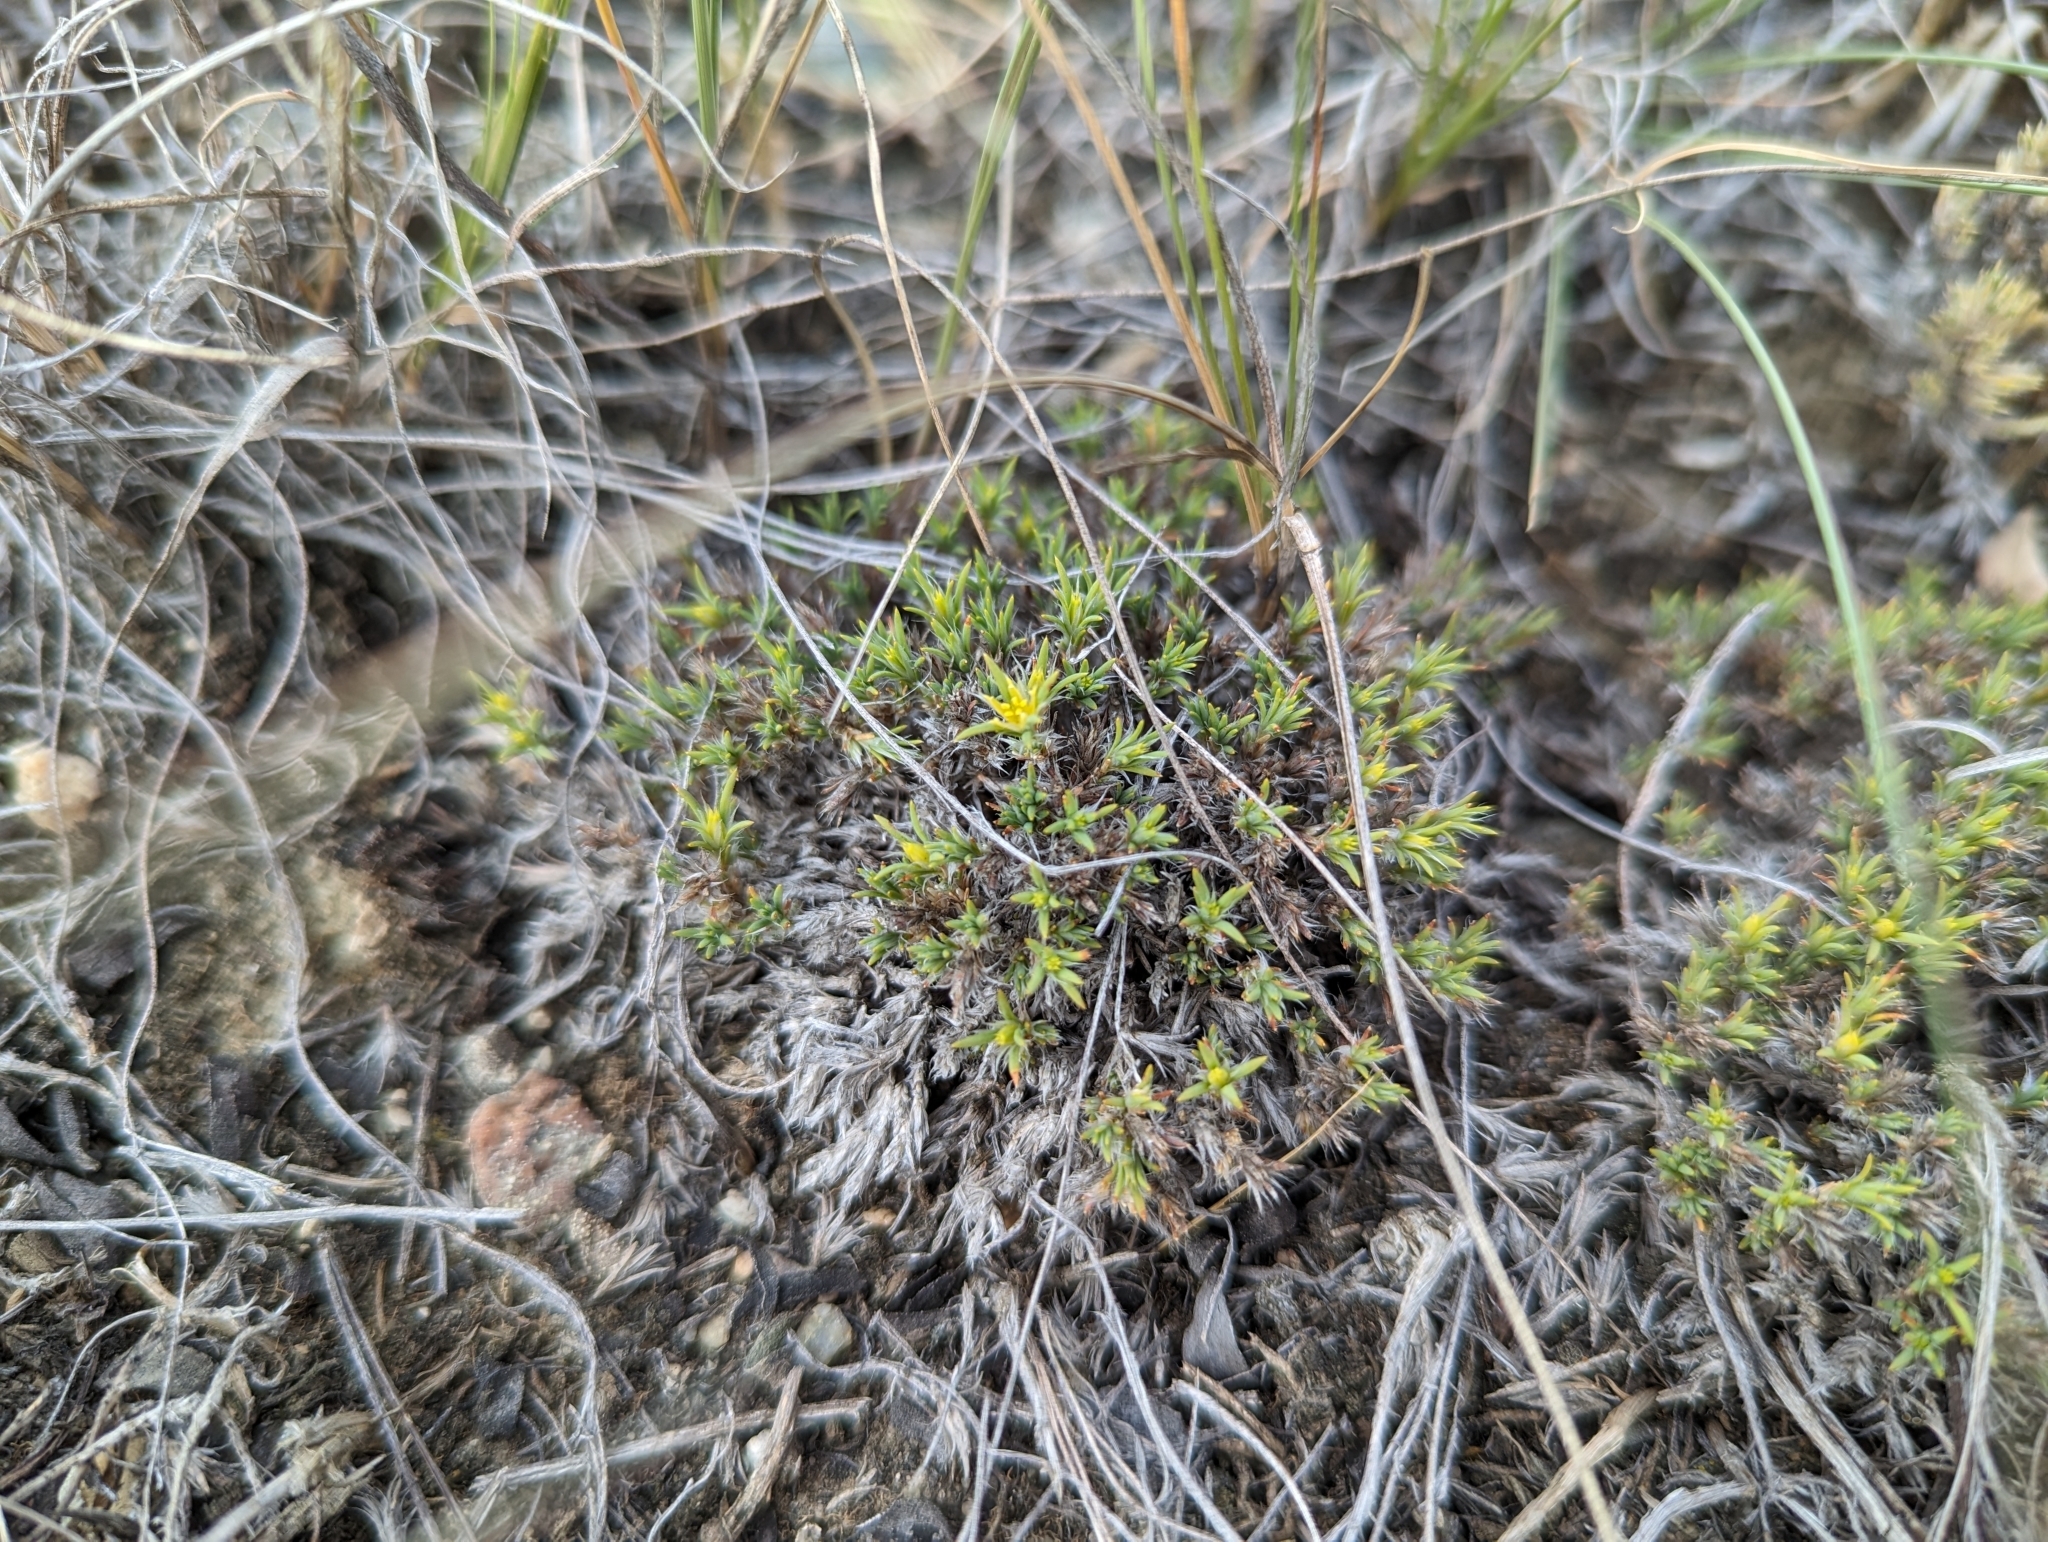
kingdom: Plantae
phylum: Tracheophyta
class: Magnoliopsida
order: Caryophyllales
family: Caryophyllaceae
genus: Paronychia
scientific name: Paronychia sessiliflora
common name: Creeping nailwort
